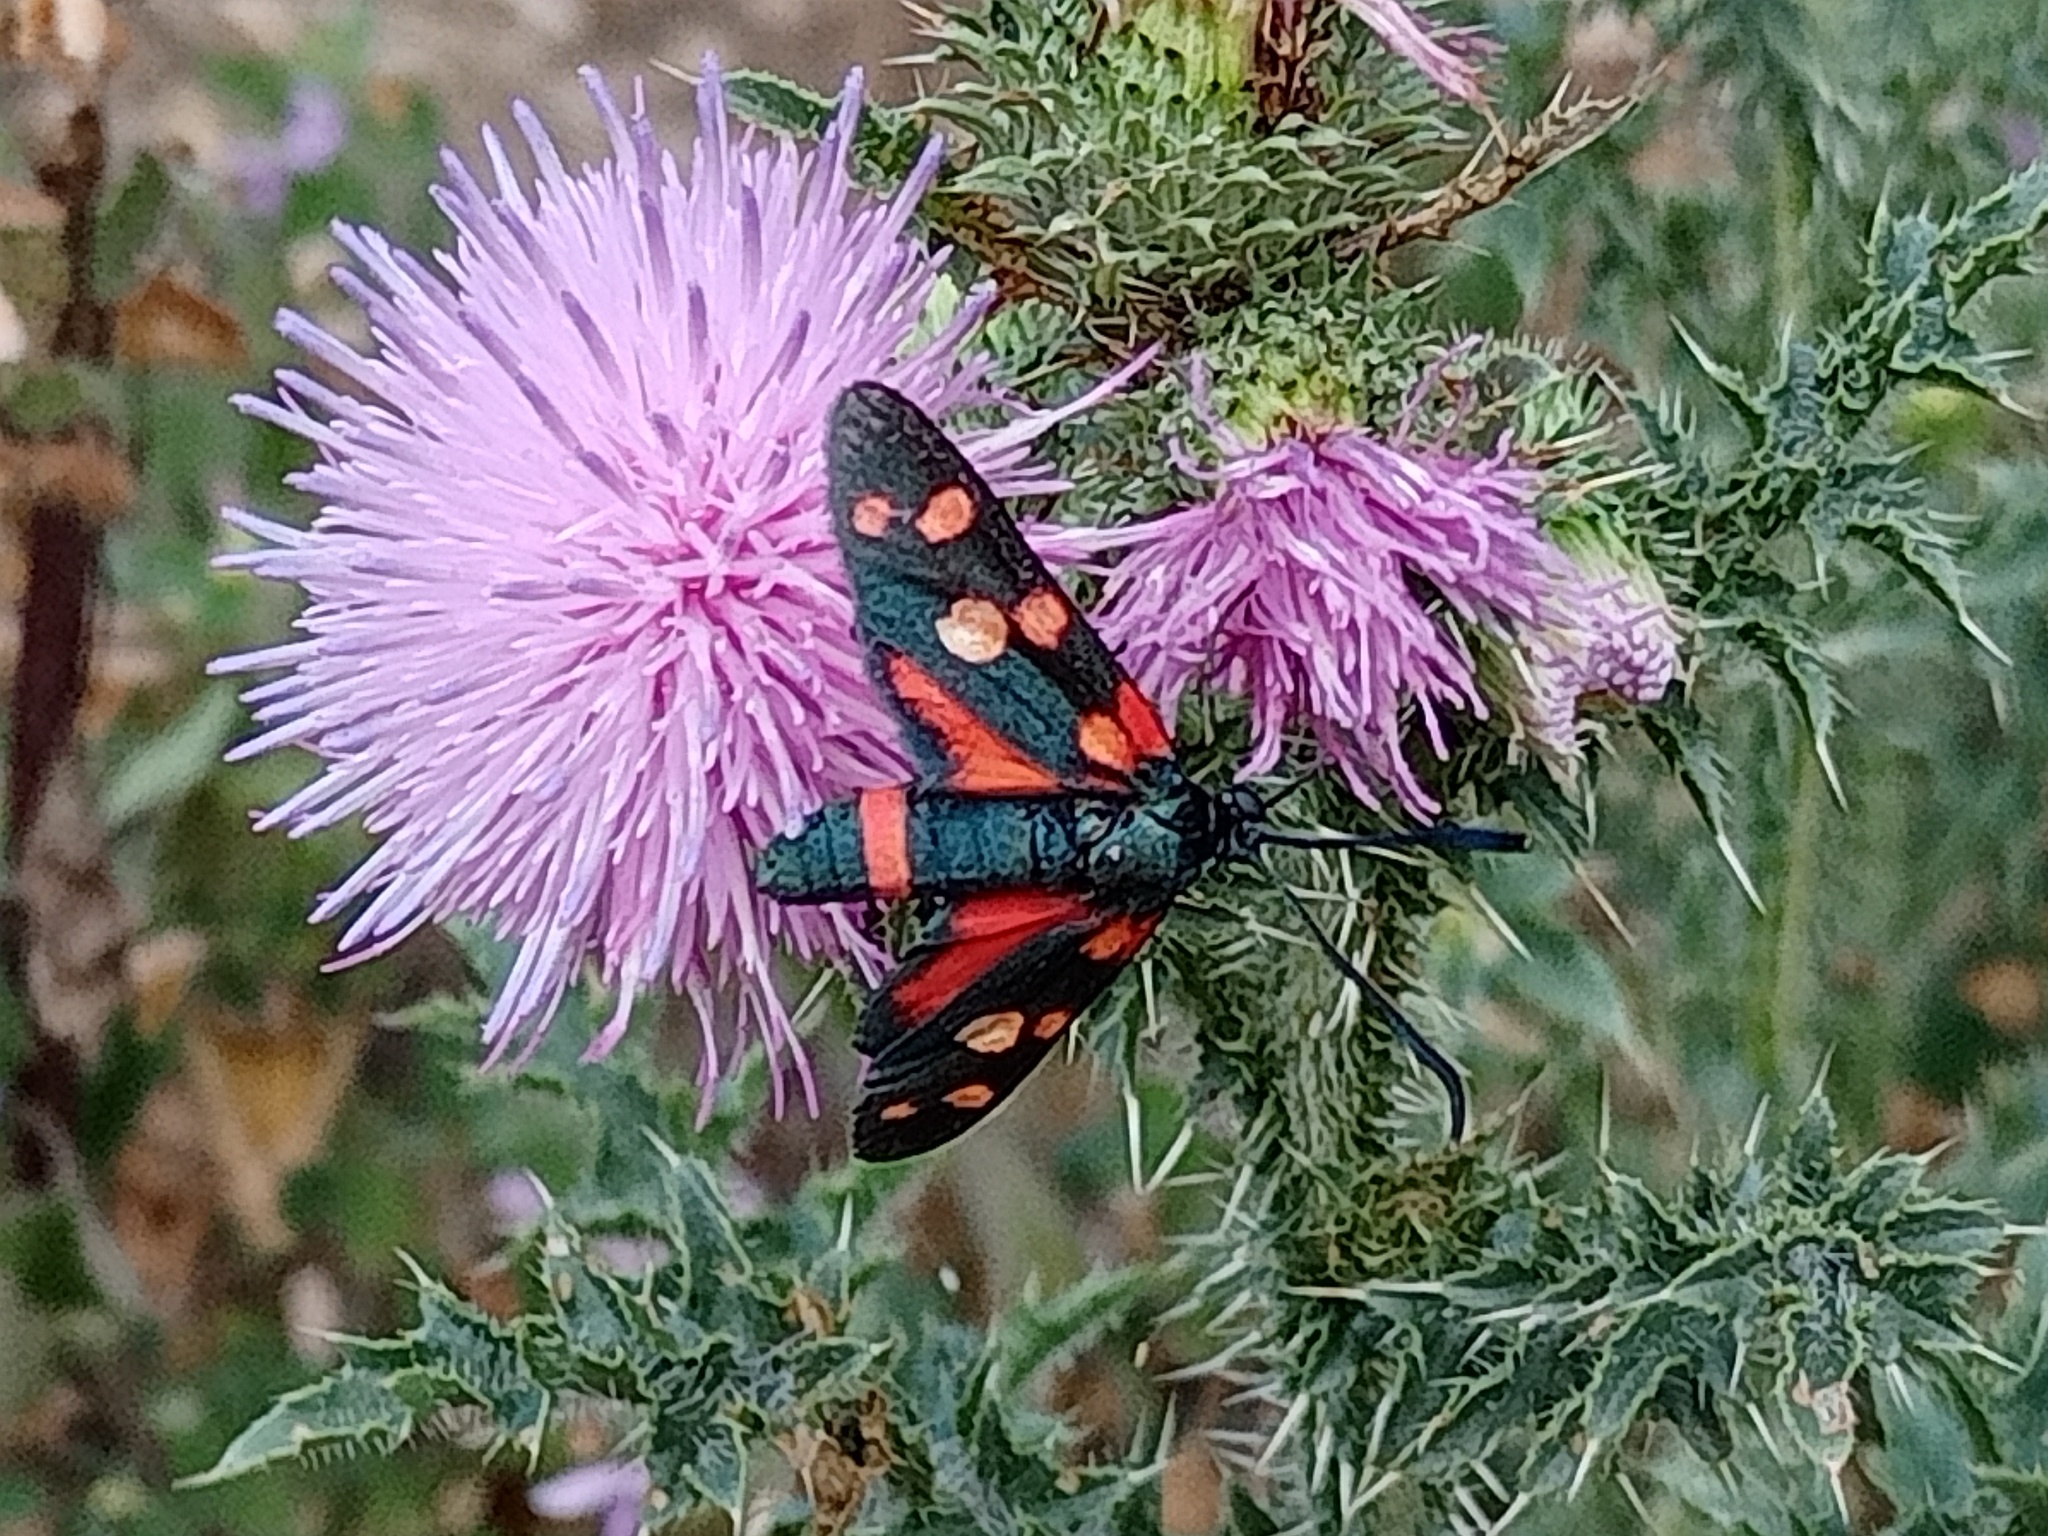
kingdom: Animalia
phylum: Arthropoda
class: Insecta
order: Lepidoptera
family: Zygaenidae
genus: Zygaena
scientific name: Zygaena ephialtes
